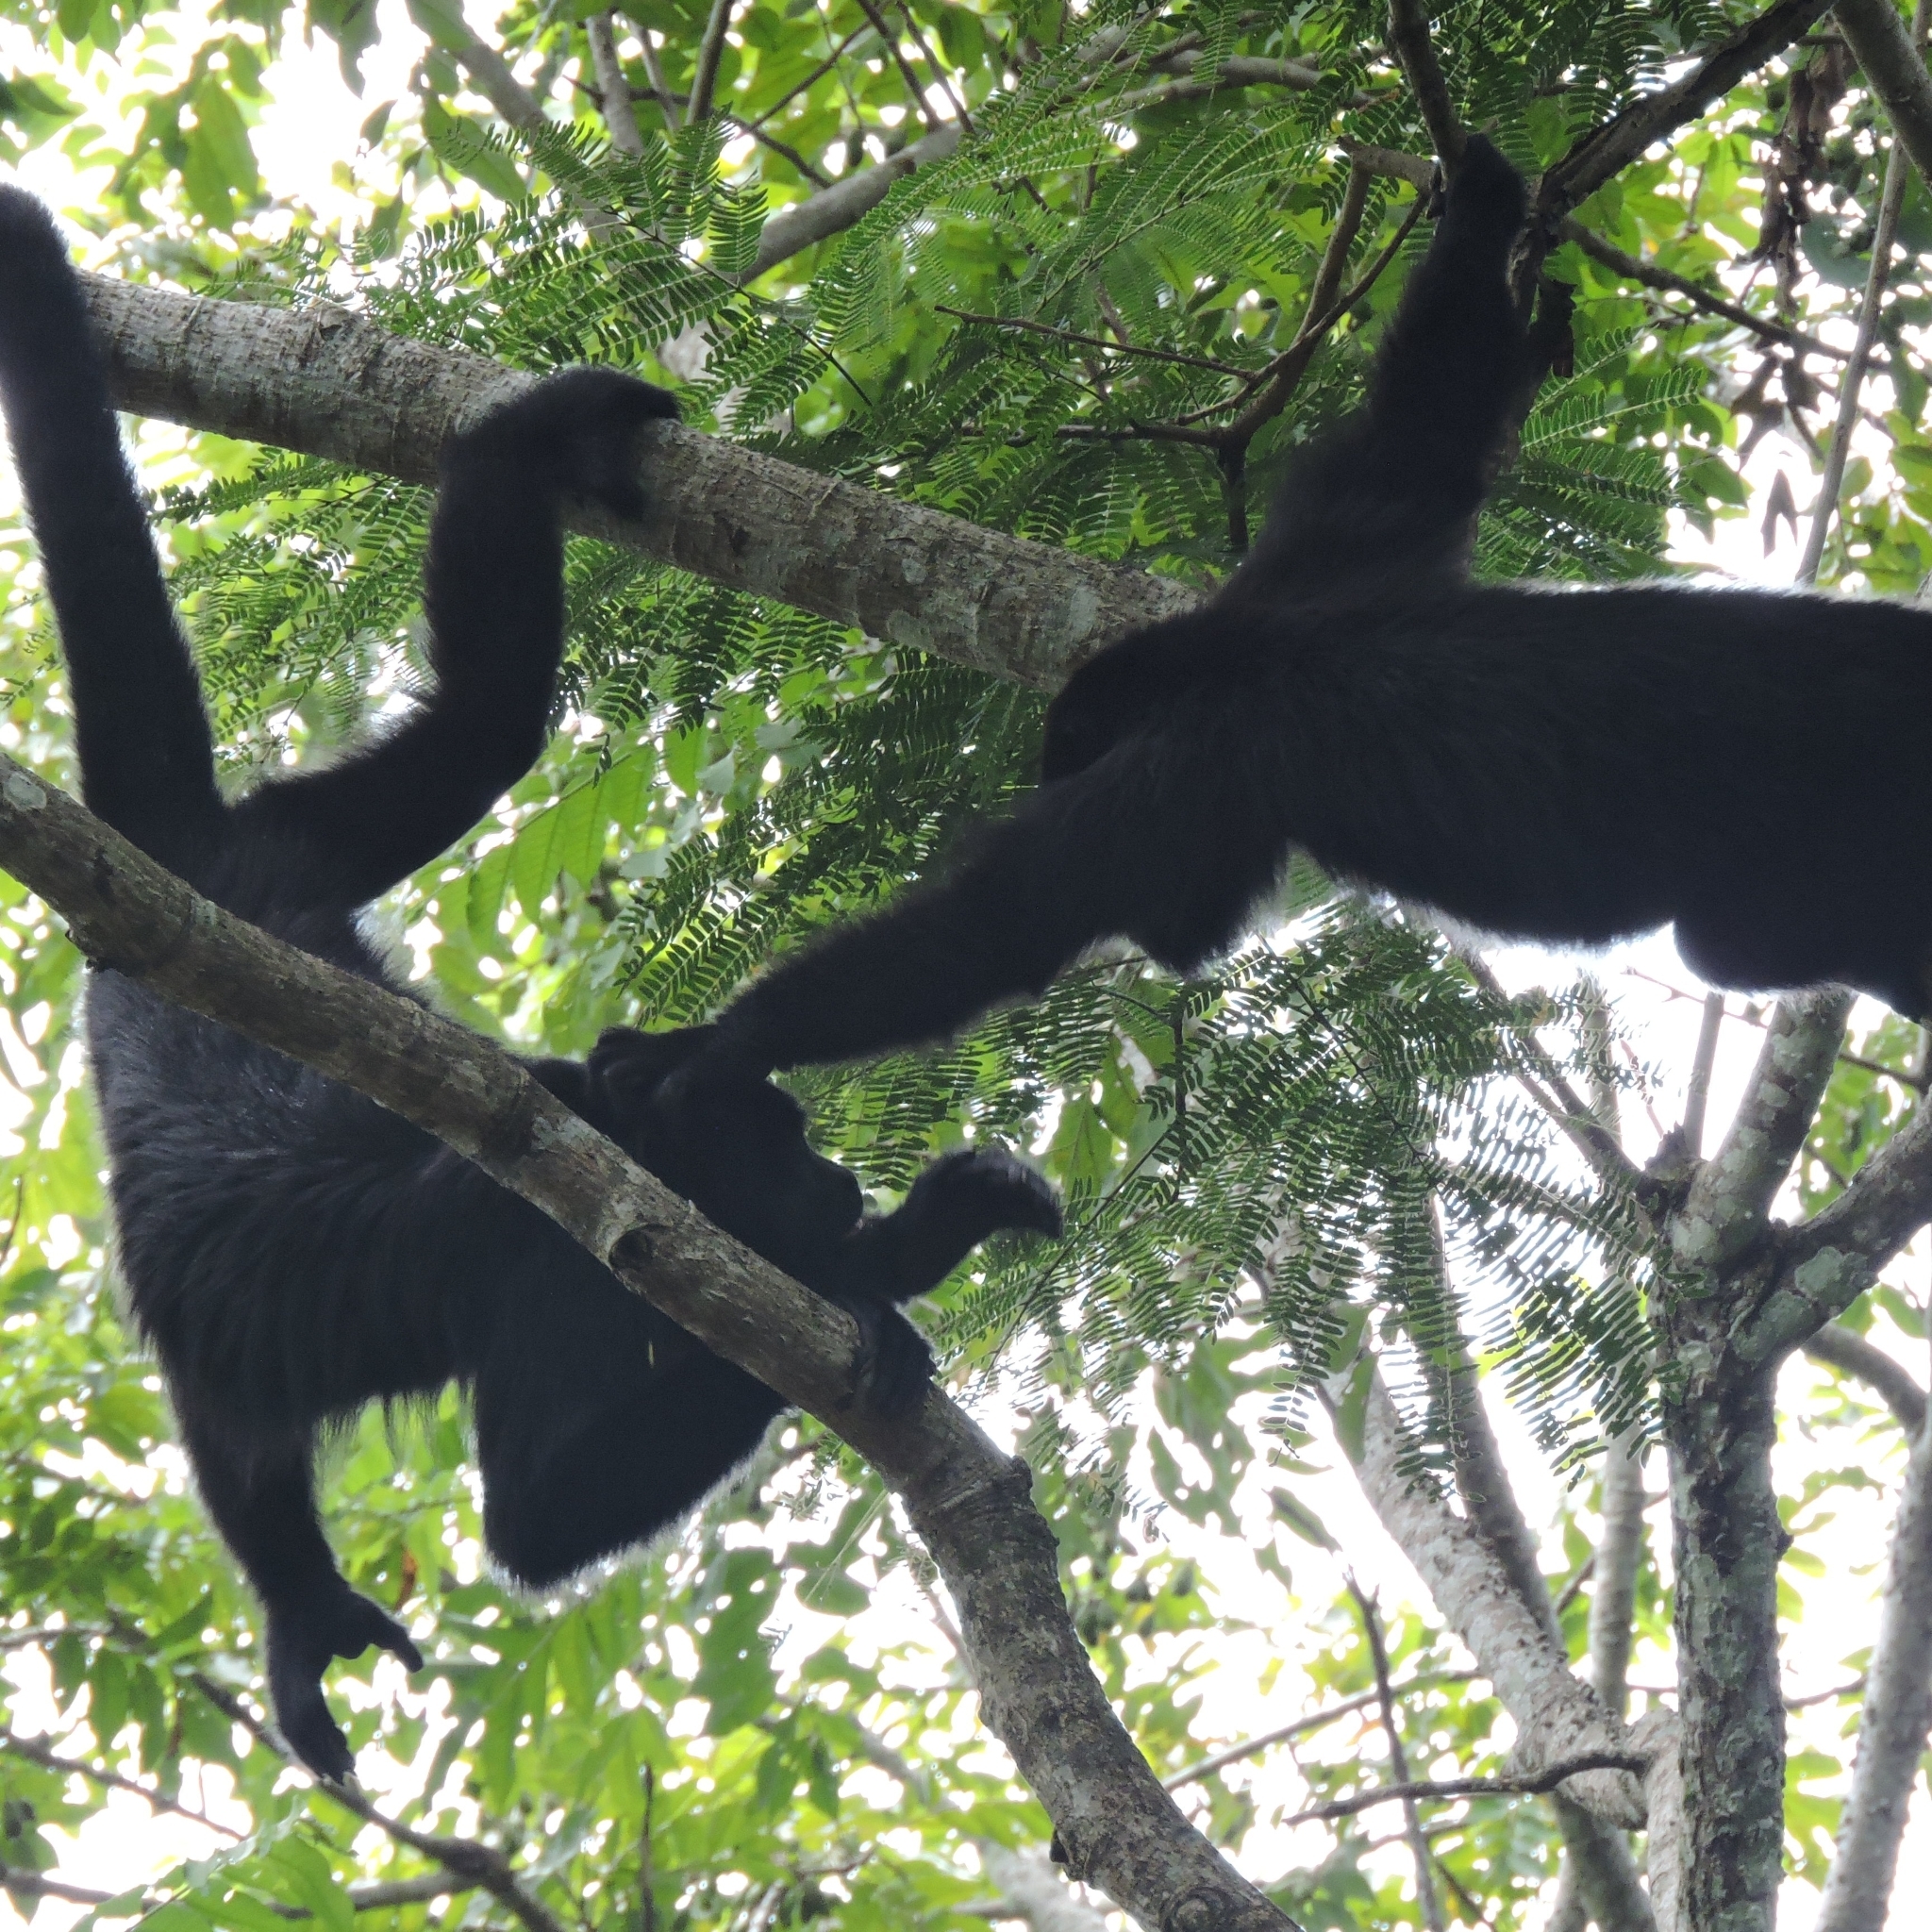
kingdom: Animalia
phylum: Chordata
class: Mammalia
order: Primates
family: Atelidae
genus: Alouatta
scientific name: Alouatta pigra
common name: Guatemalan black howler
